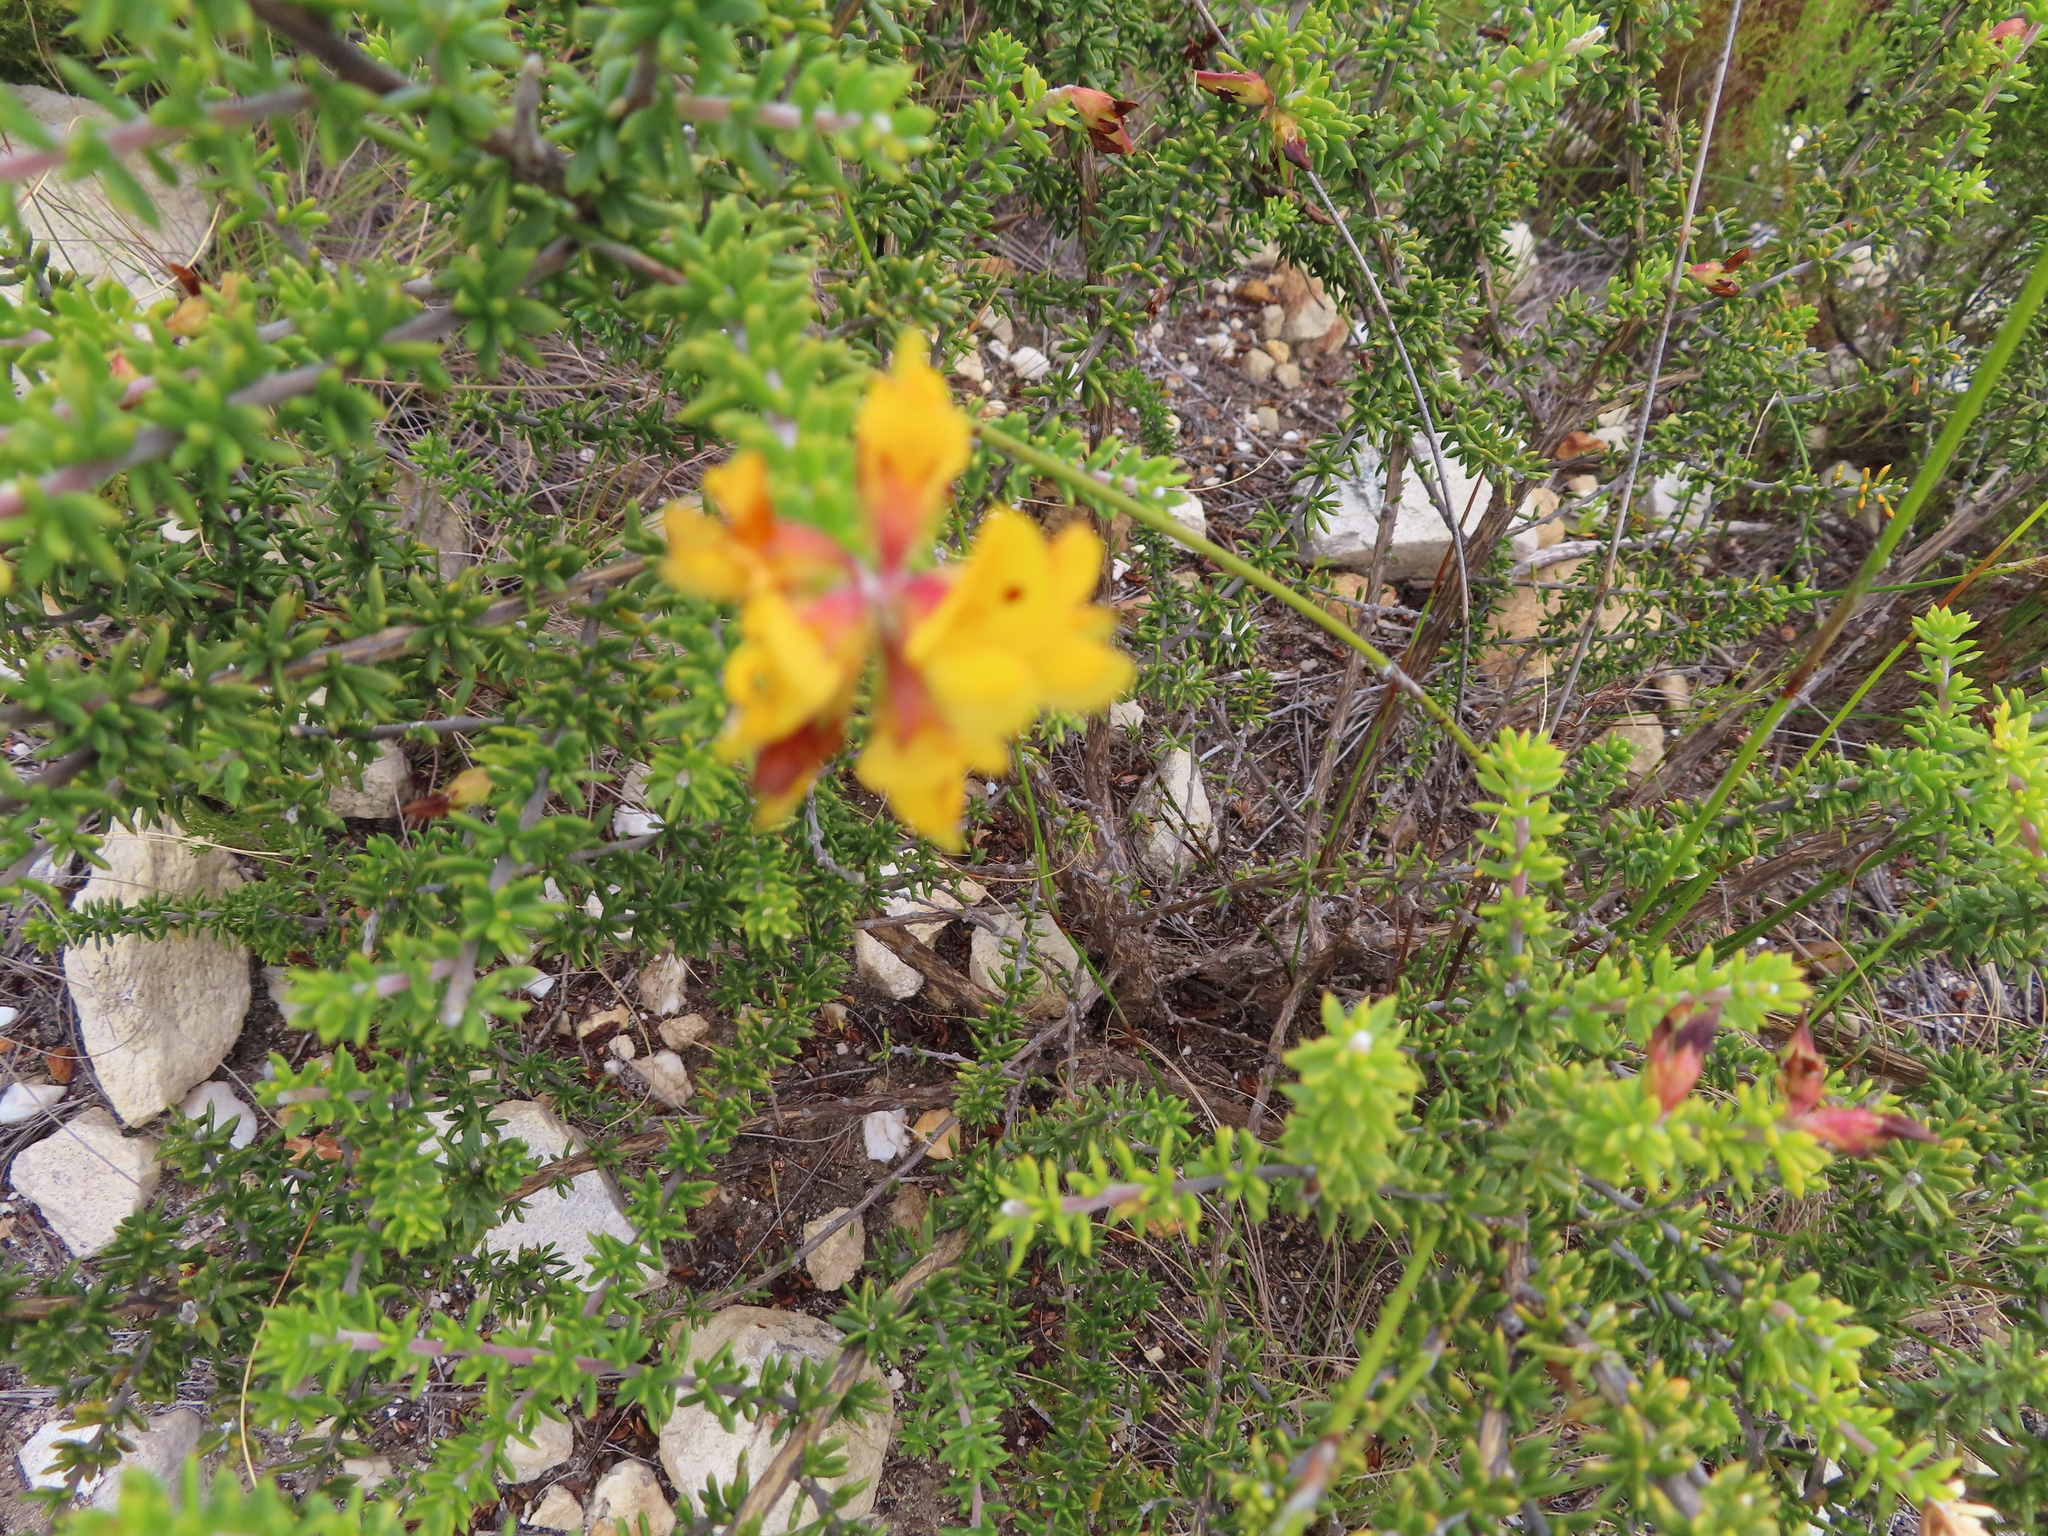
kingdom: Plantae
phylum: Tracheophyta
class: Magnoliopsida
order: Fabales
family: Fabaceae
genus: Aspalathus
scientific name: Aspalathus fusca
